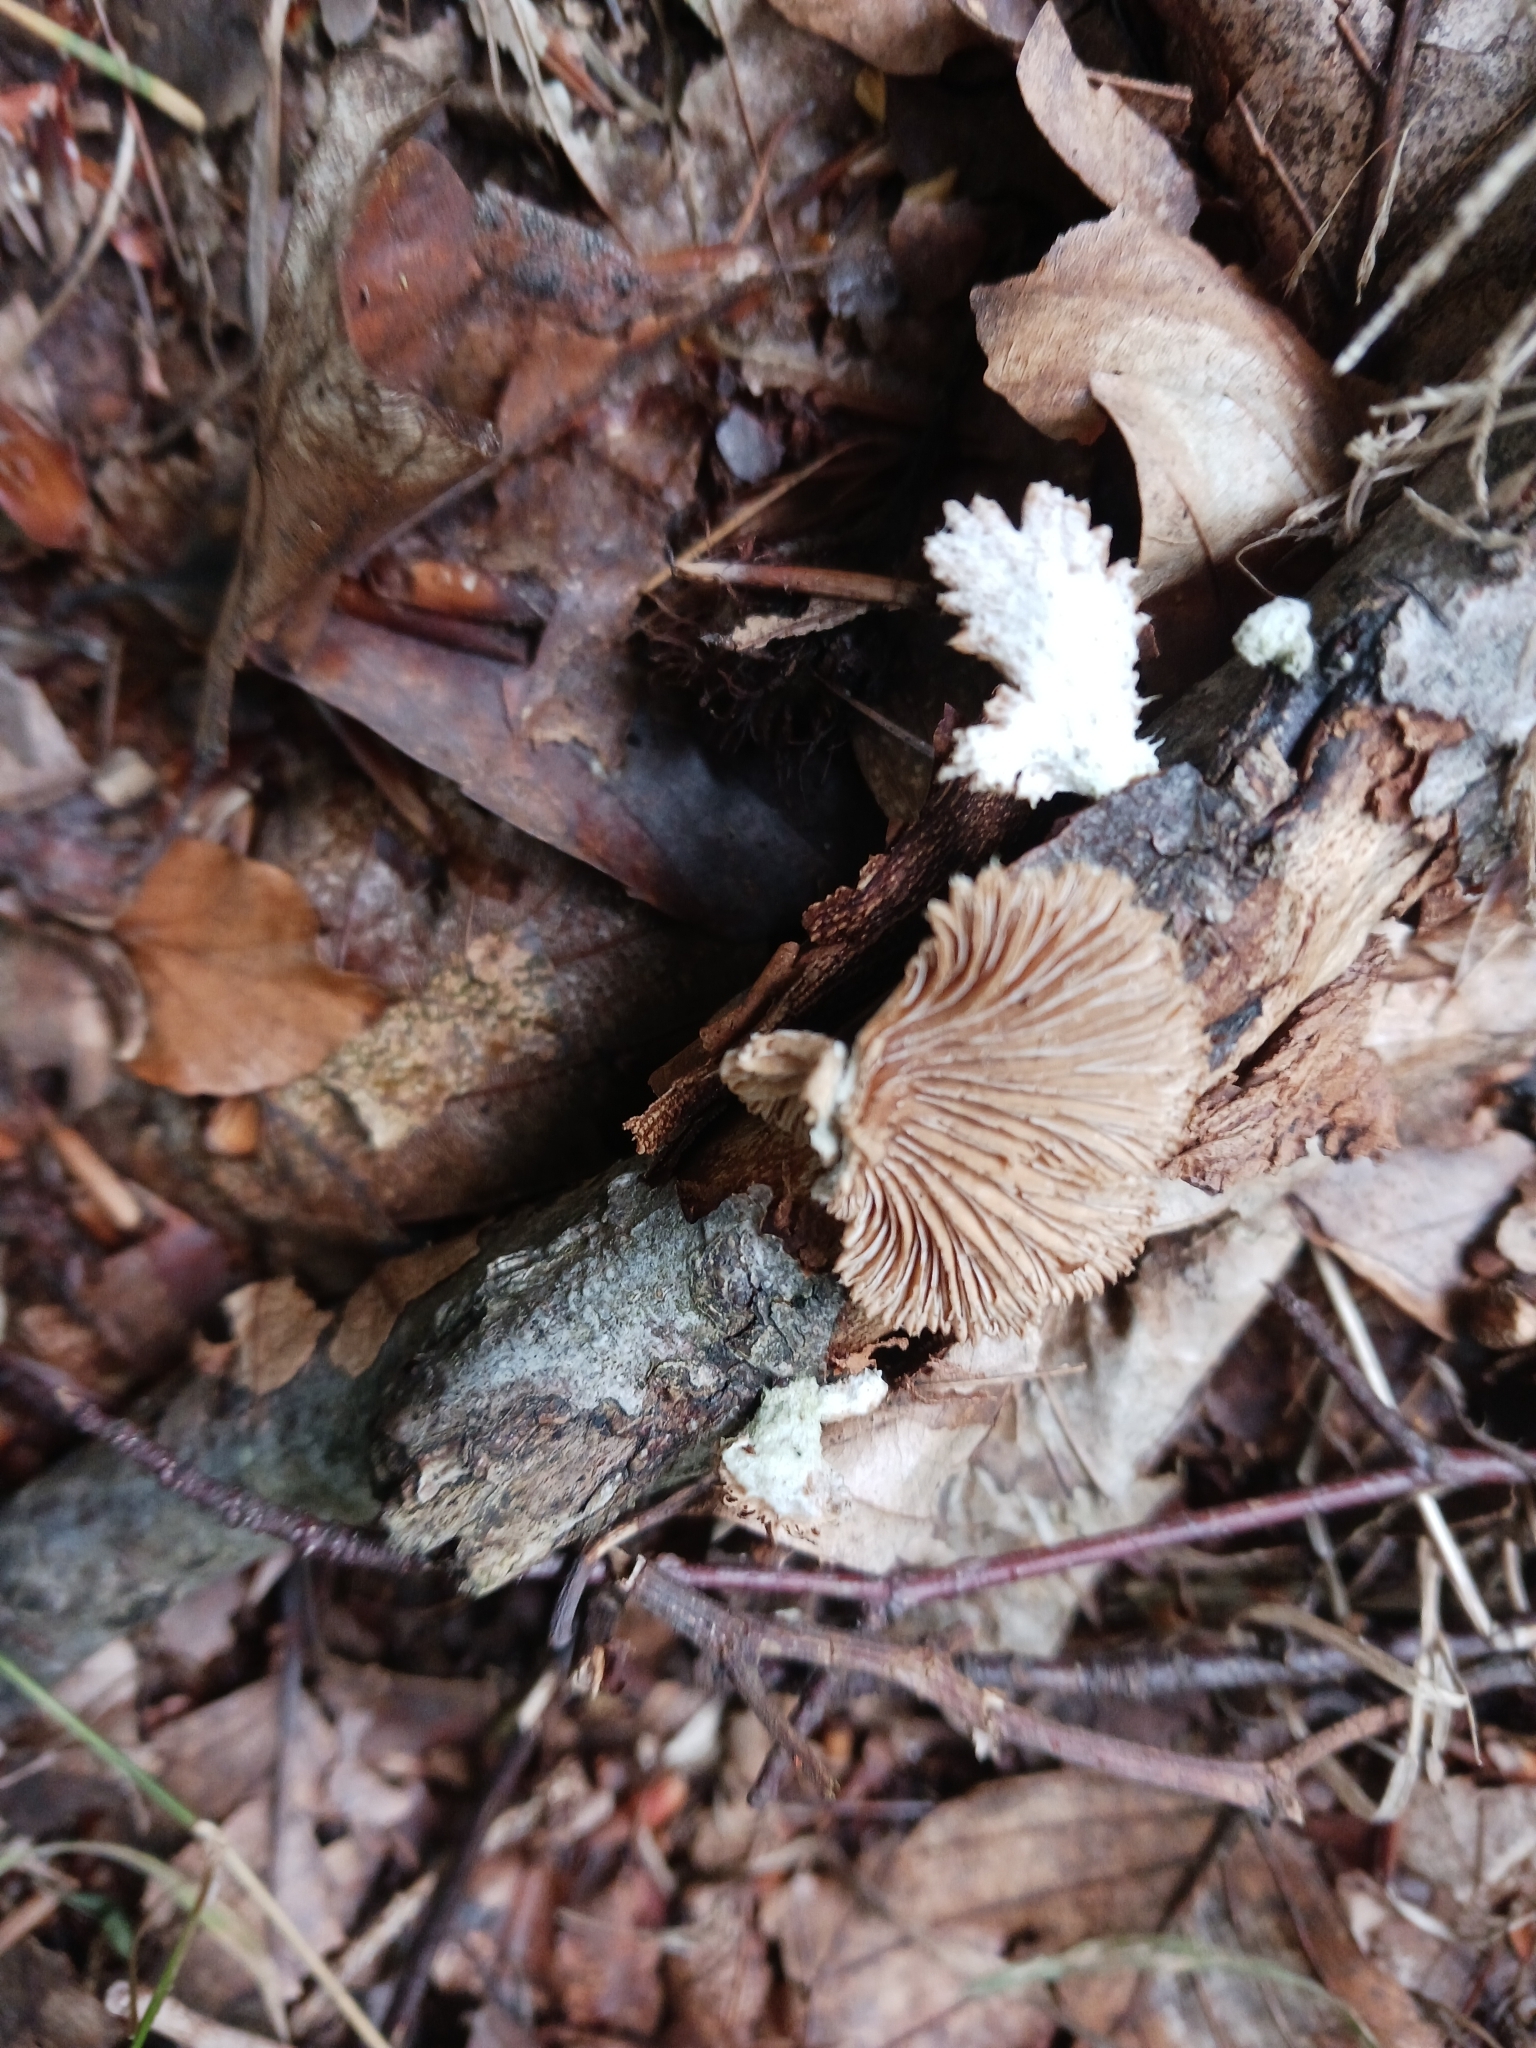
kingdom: Fungi
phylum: Basidiomycota
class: Agaricomycetes
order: Agaricales
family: Schizophyllaceae
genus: Schizophyllum
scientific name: Schizophyllum commune
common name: Common porecrust
